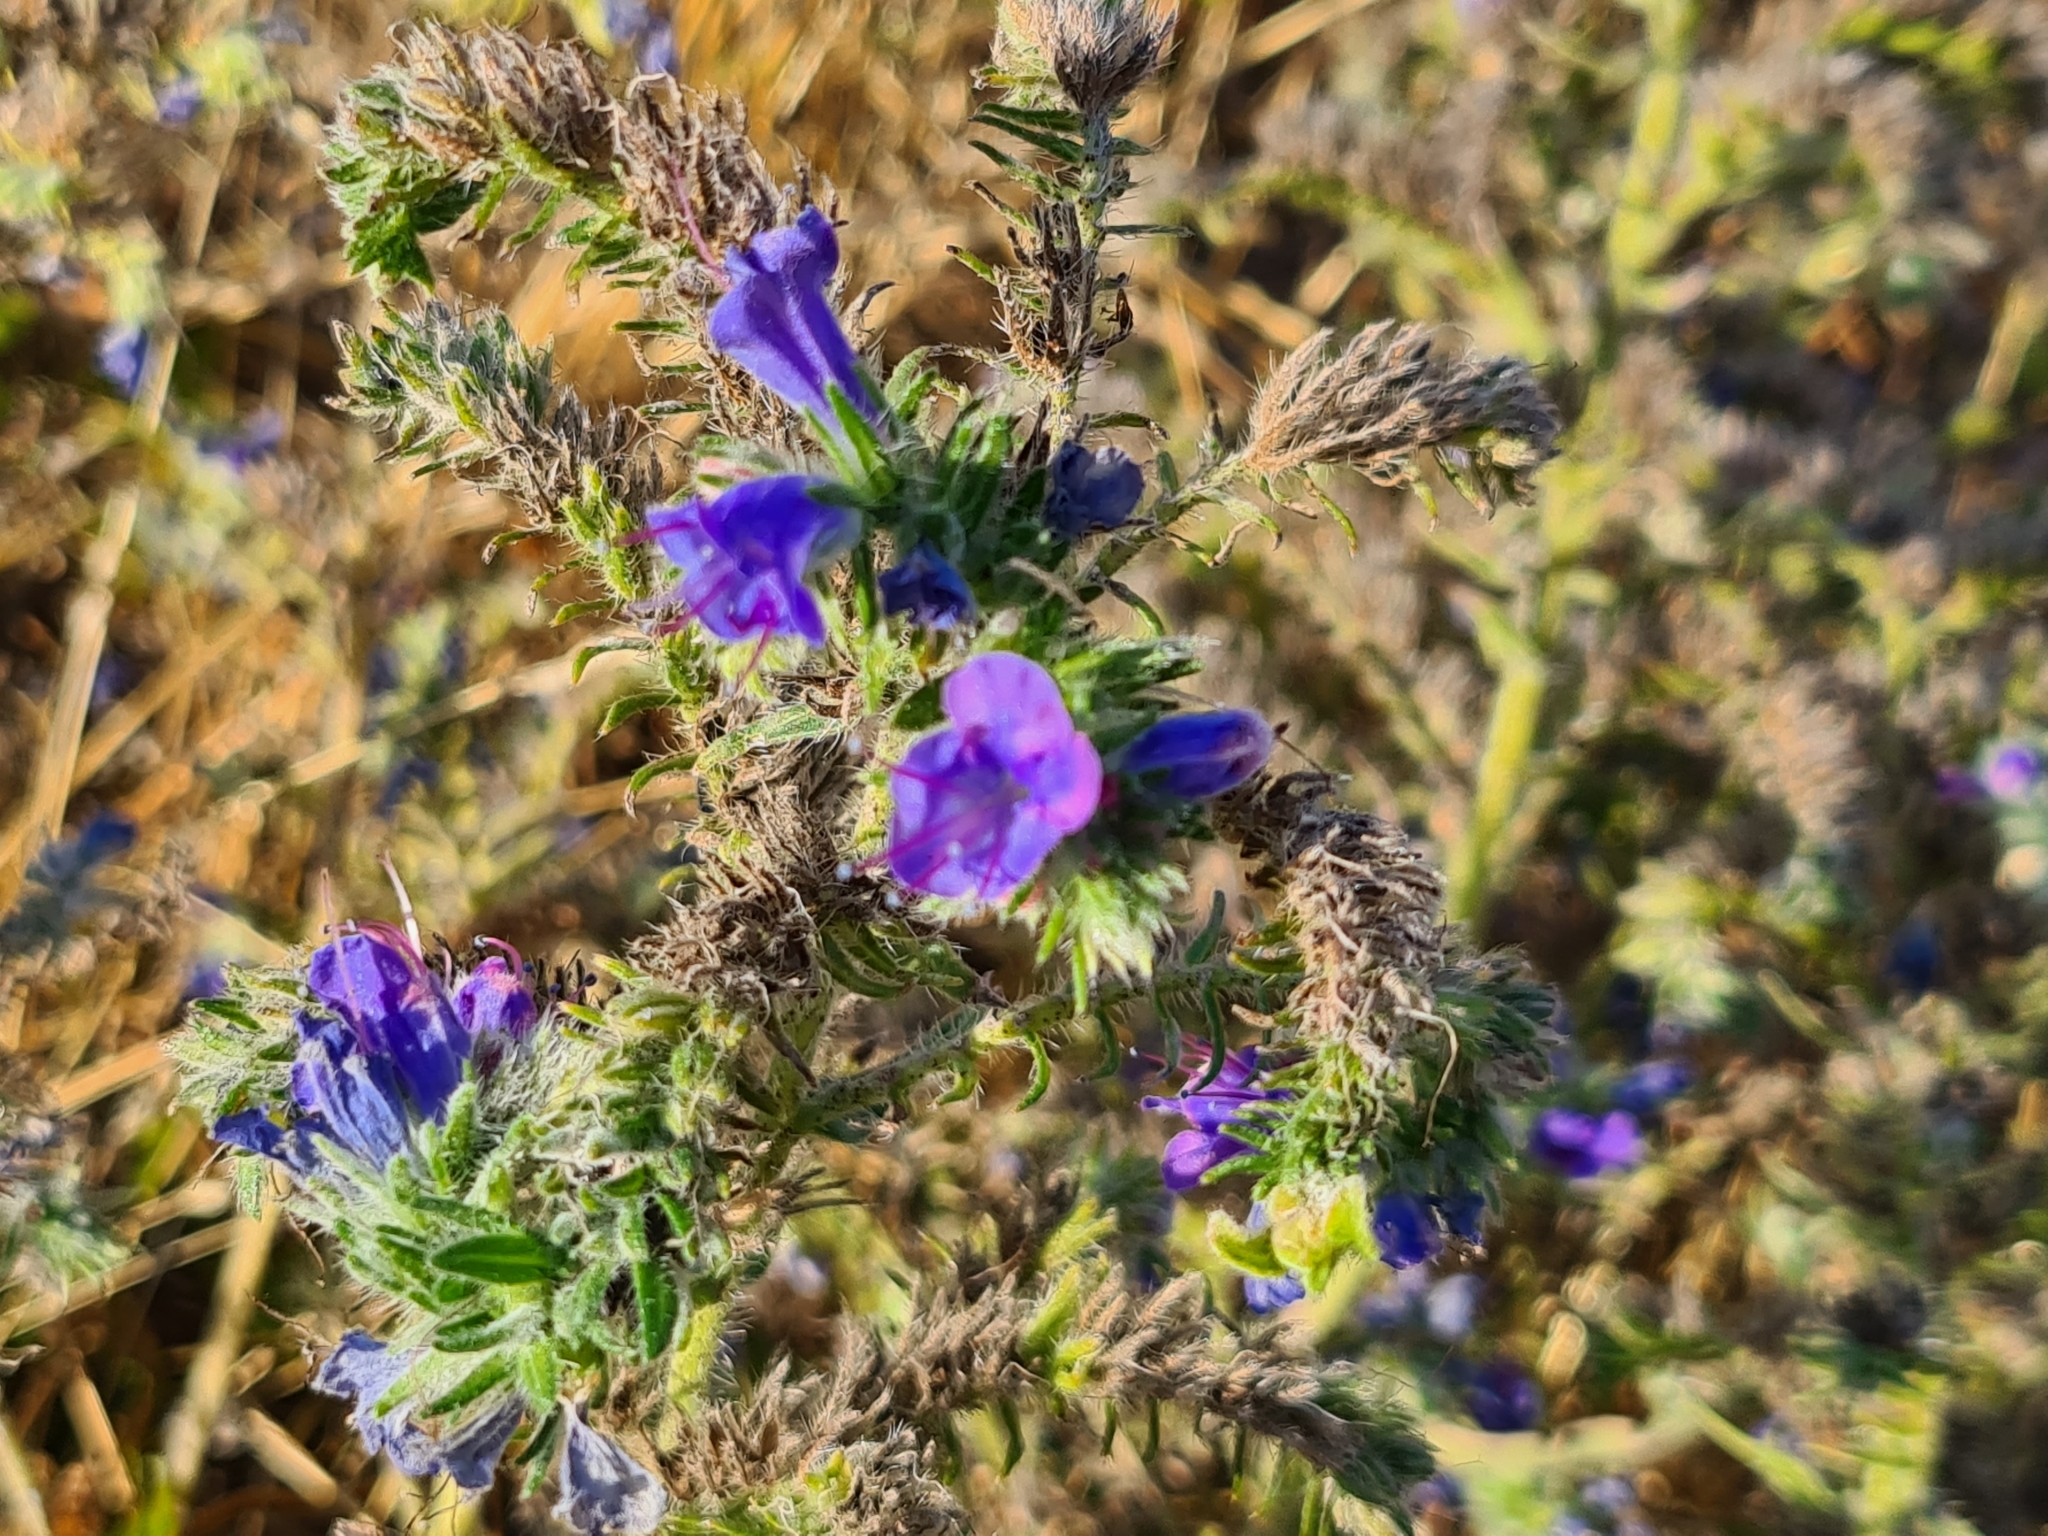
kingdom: Plantae
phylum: Tracheophyta
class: Magnoliopsida
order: Boraginales
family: Boraginaceae
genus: Echium
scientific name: Echium vulgare
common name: Common viper's bugloss
